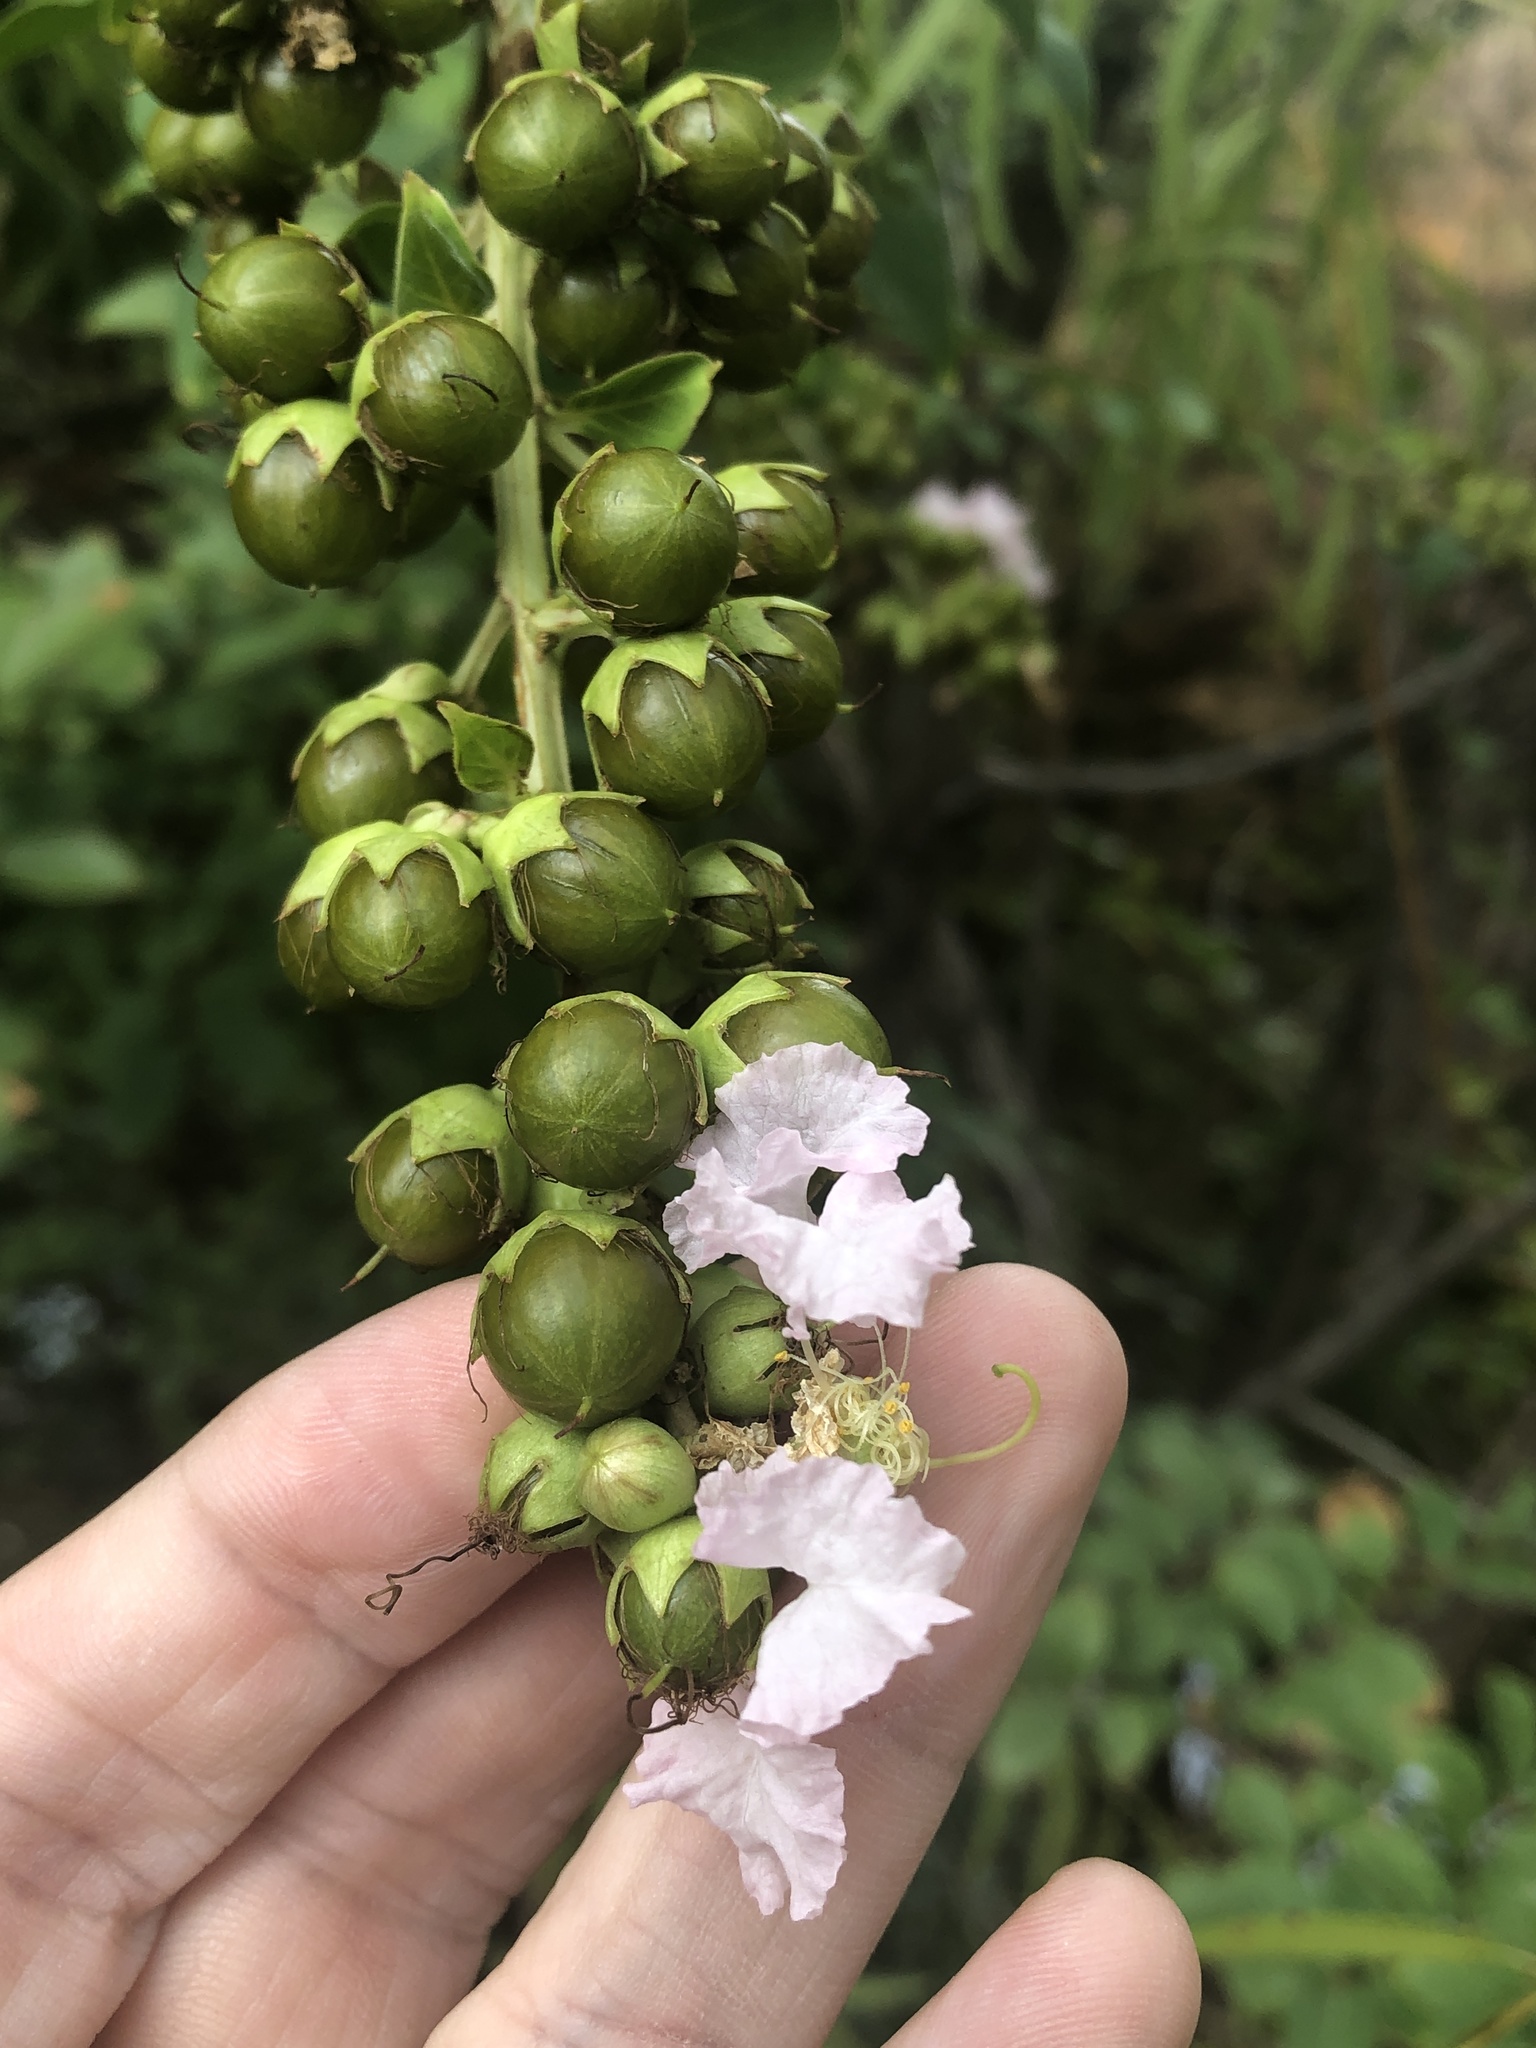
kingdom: Plantae
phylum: Tracheophyta
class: Magnoliopsida
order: Myrtales
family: Lythraceae
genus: Lagerstroemia
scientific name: Lagerstroemia indica
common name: Crape-myrtle
